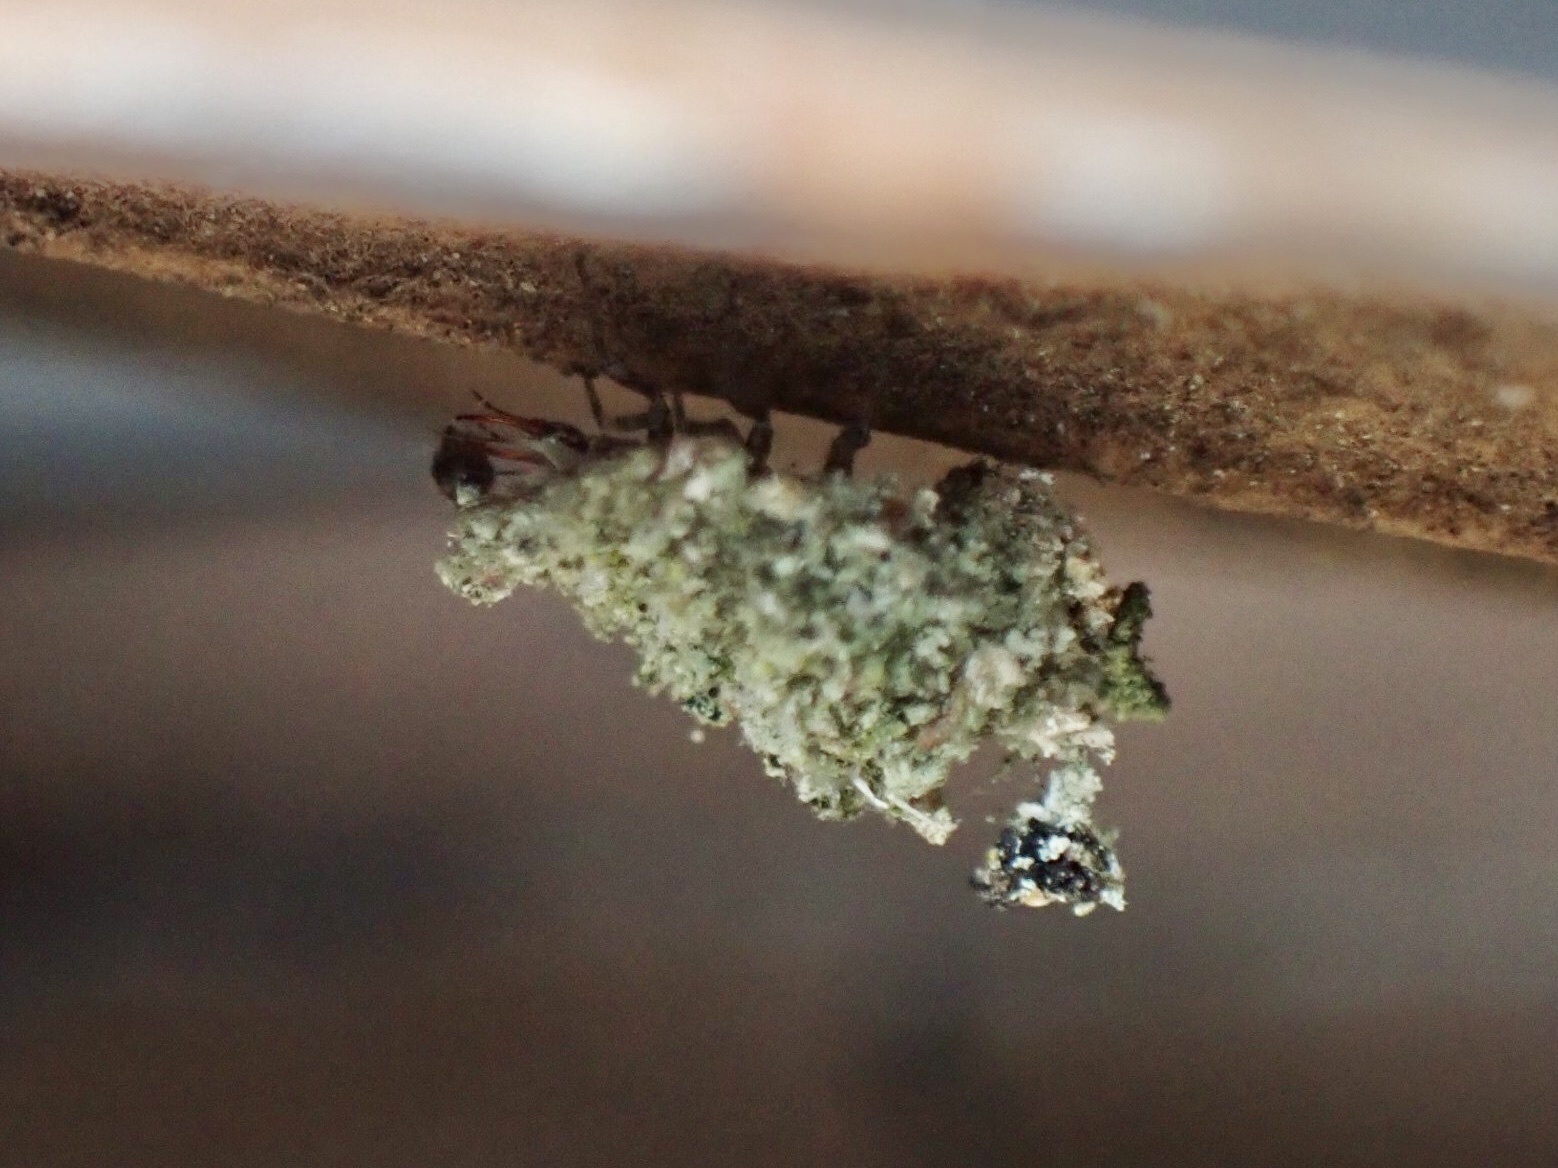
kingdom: Animalia
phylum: Arthropoda
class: Insecta
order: Neuroptera
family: Chrysopidae
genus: Leucochrysa
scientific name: Leucochrysa pavida
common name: Lichen-carrying green lacewing
